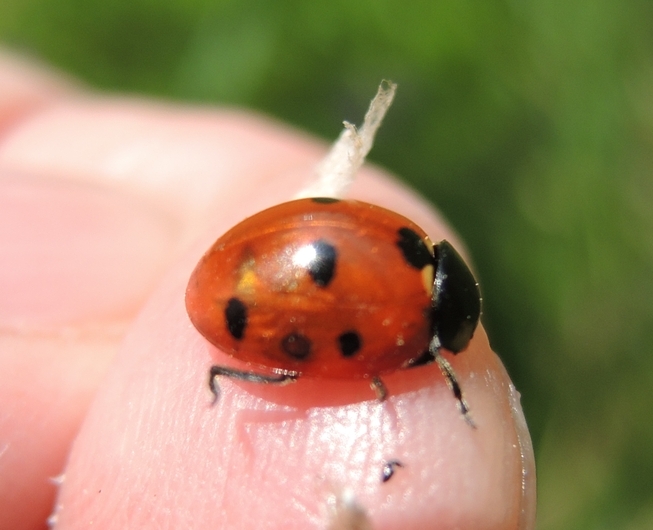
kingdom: Animalia
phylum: Arthropoda
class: Insecta
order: Coleoptera
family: Coccinellidae
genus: Coccinella
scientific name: Coccinella septempunctata
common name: Sevenspotted lady beetle
